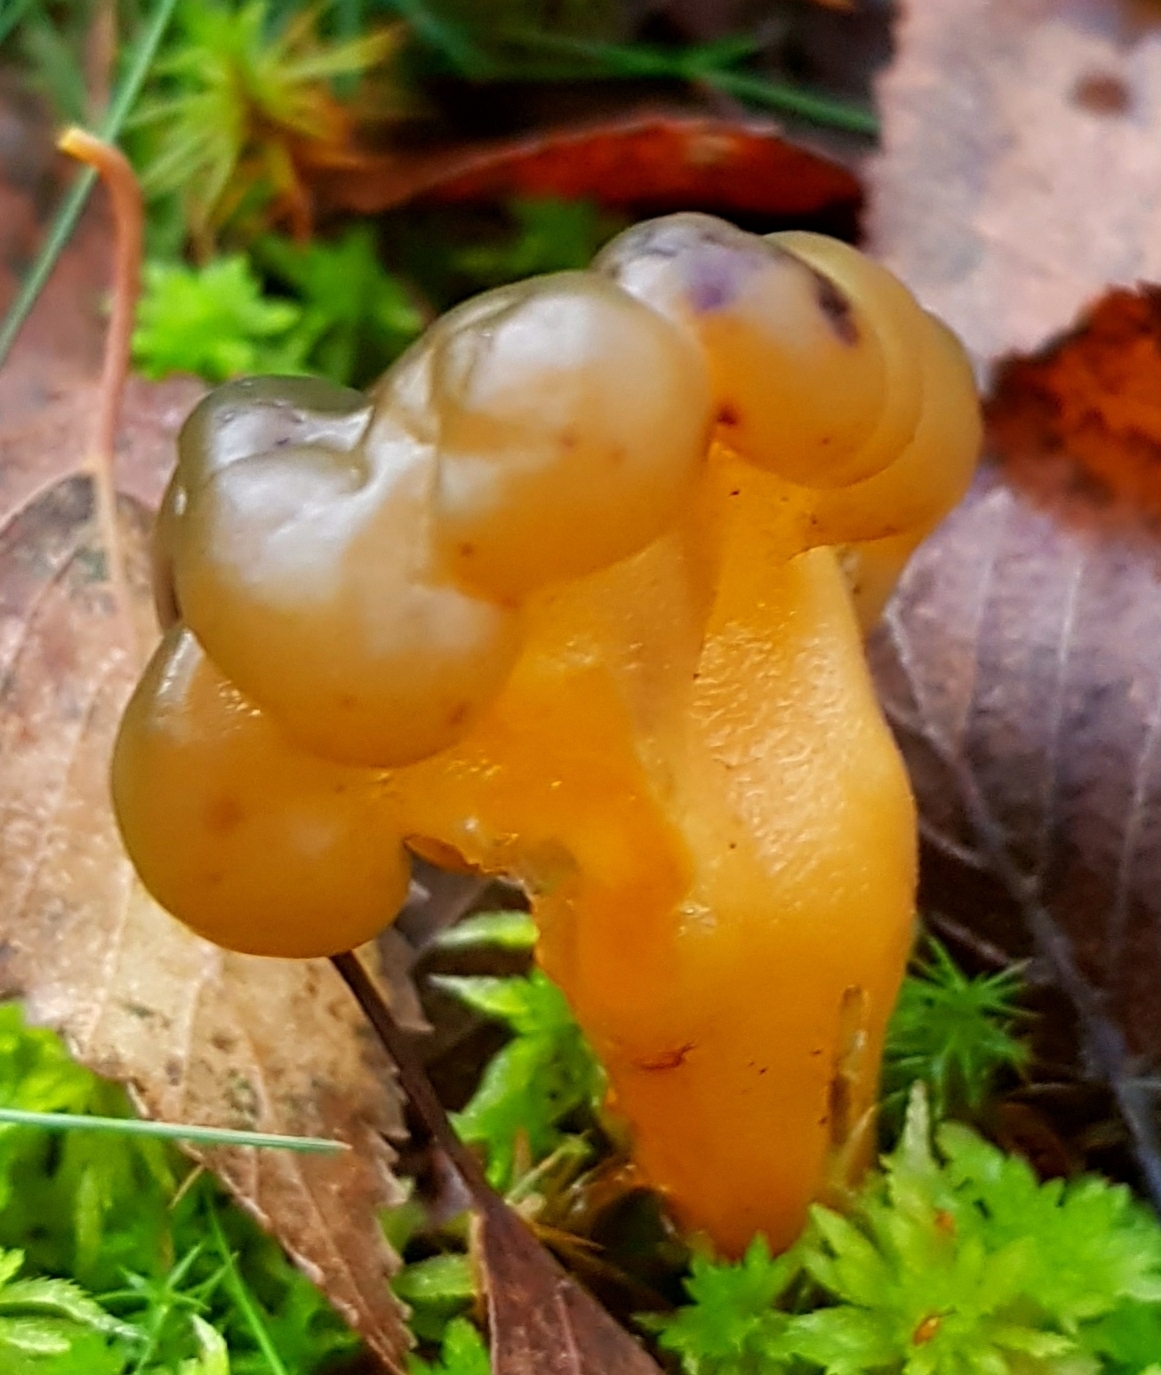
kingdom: Fungi
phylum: Ascomycota
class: Leotiomycetes
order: Leotiales
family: Leotiaceae
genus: Leotia
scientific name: Leotia lubrica
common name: Jellybaby
